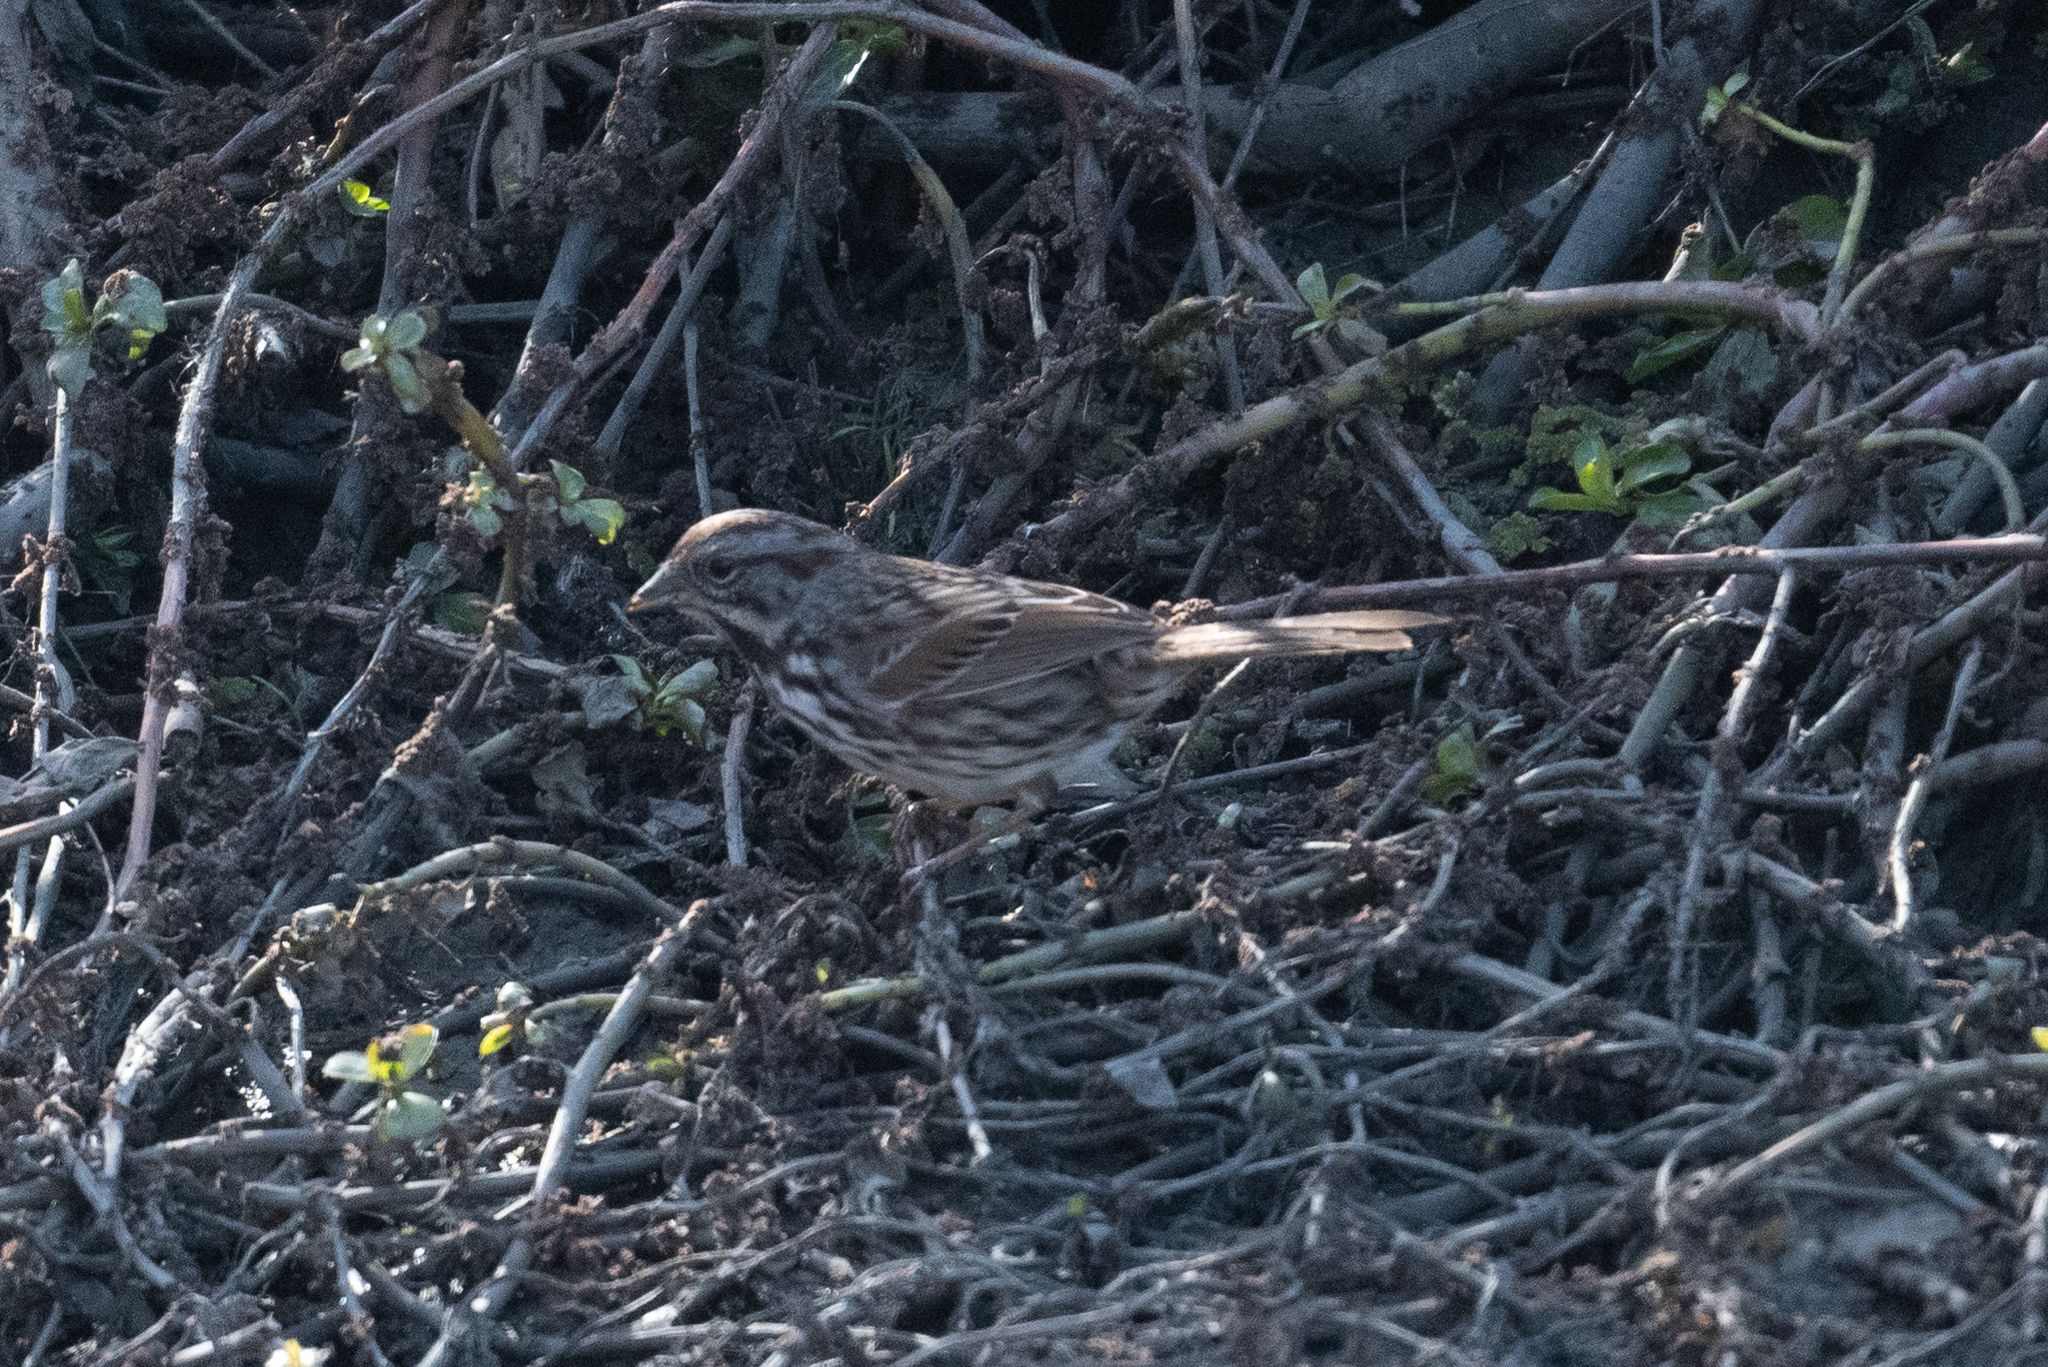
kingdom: Animalia
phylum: Chordata
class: Aves
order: Passeriformes
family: Passerellidae
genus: Melospiza
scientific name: Melospiza melodia
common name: Song sparrow
